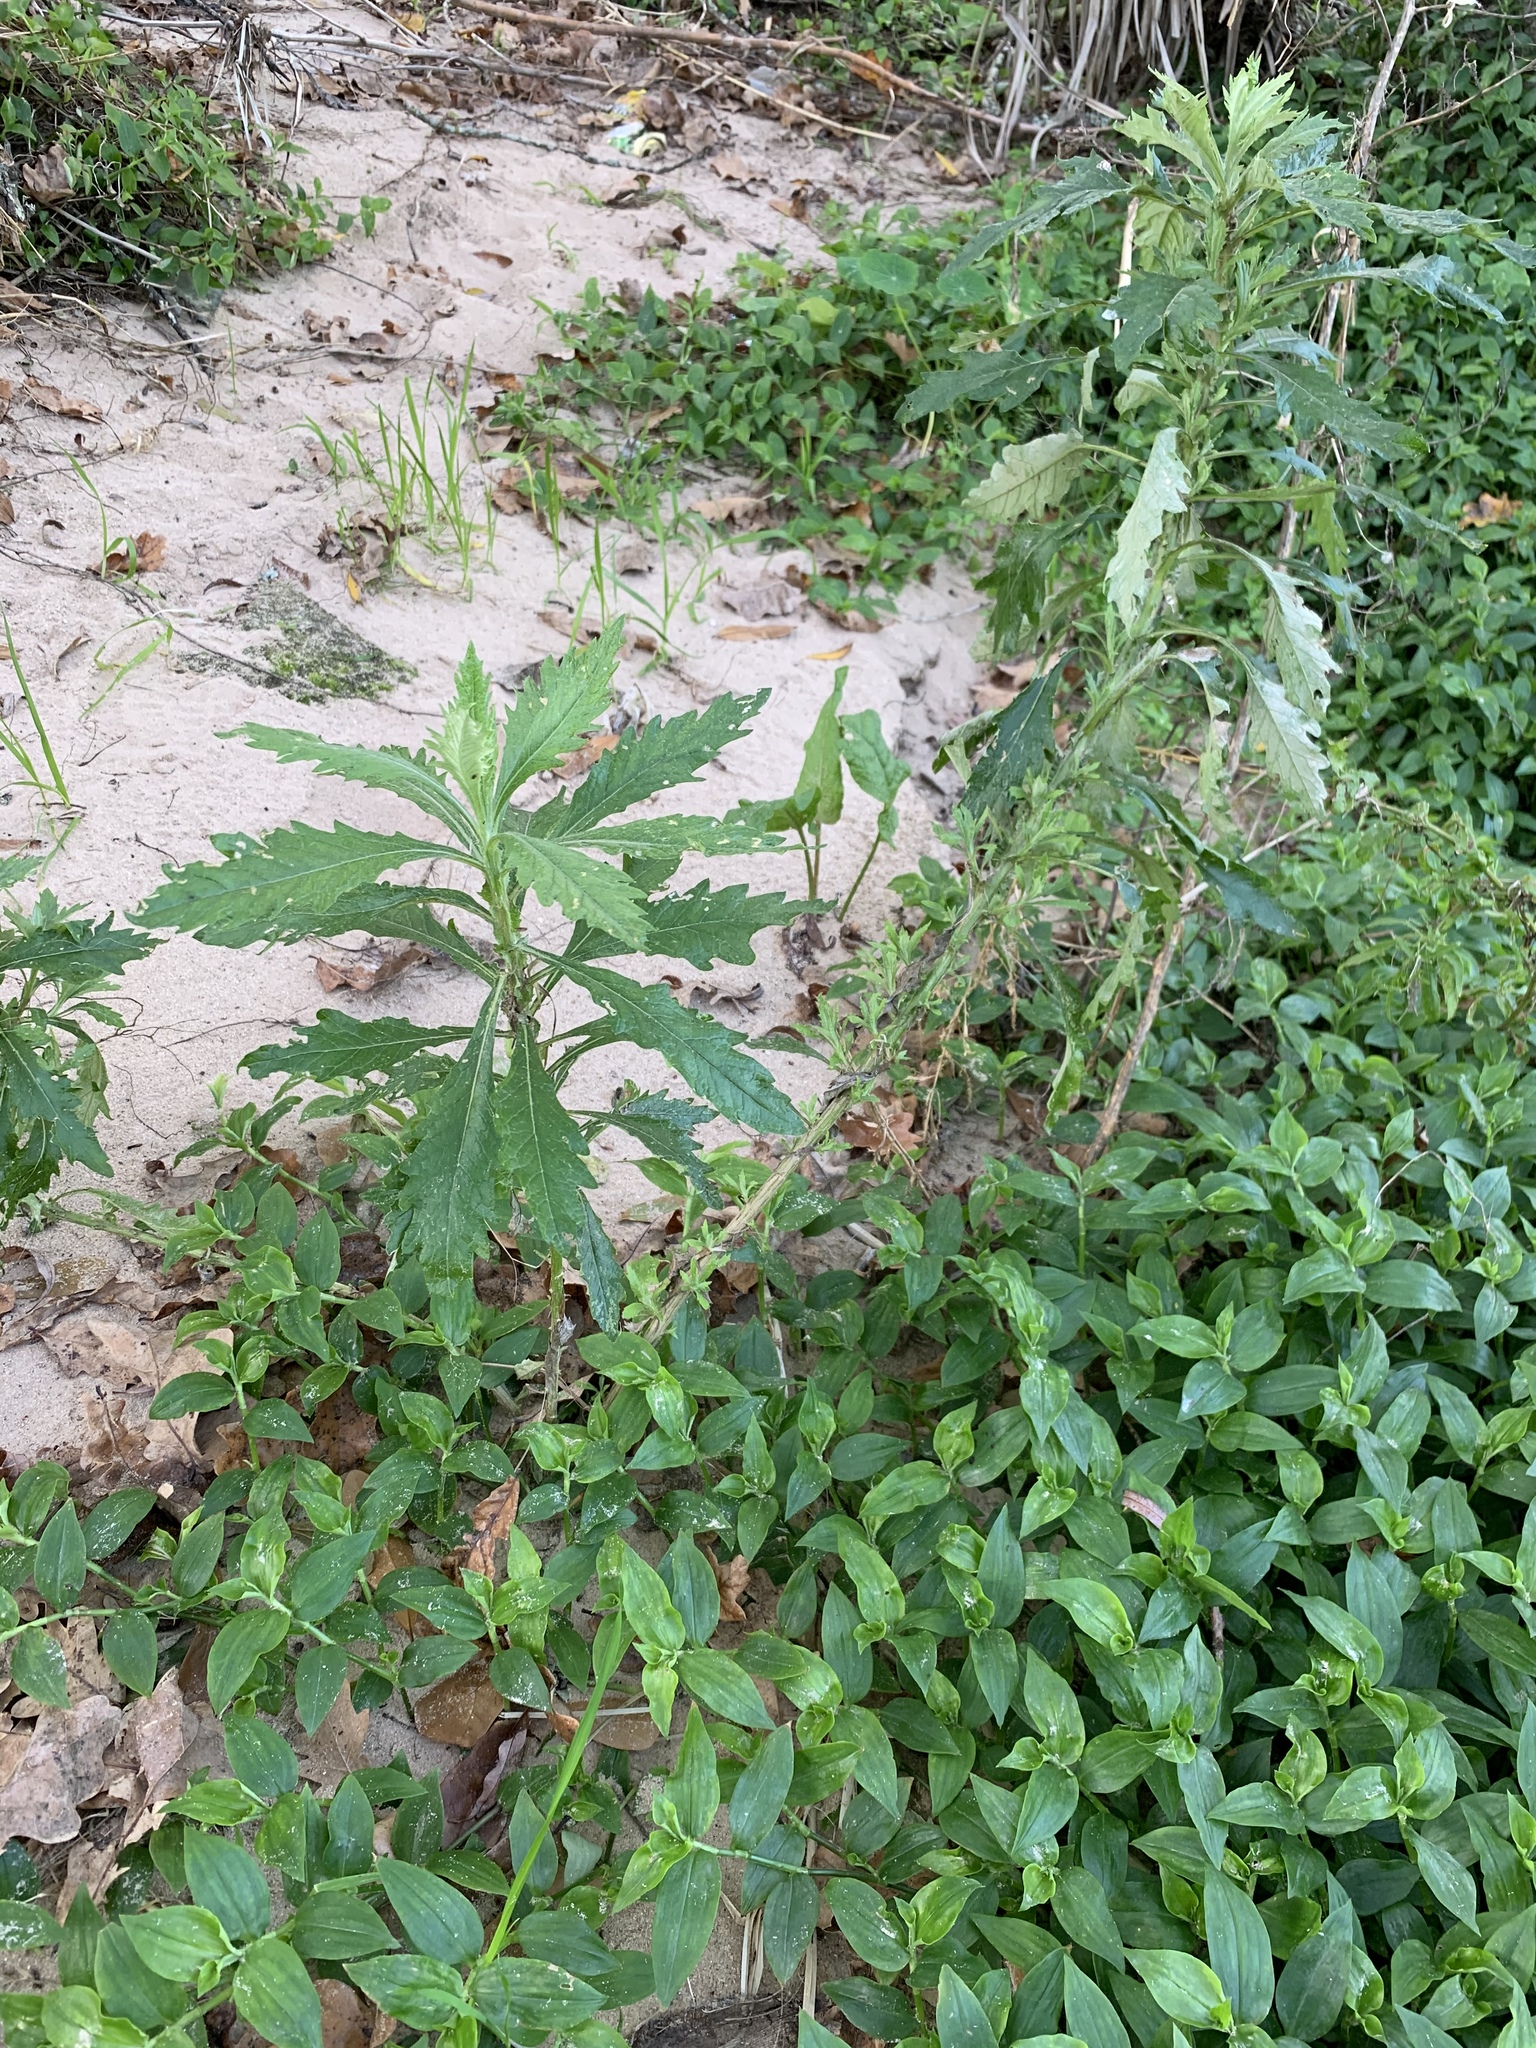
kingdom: Plantae
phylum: Tracheophyta
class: Magnoliopsida
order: Asterales
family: Asteraceae
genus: Senecio
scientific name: Senecio pterophorus
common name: Shoddy ragwort
